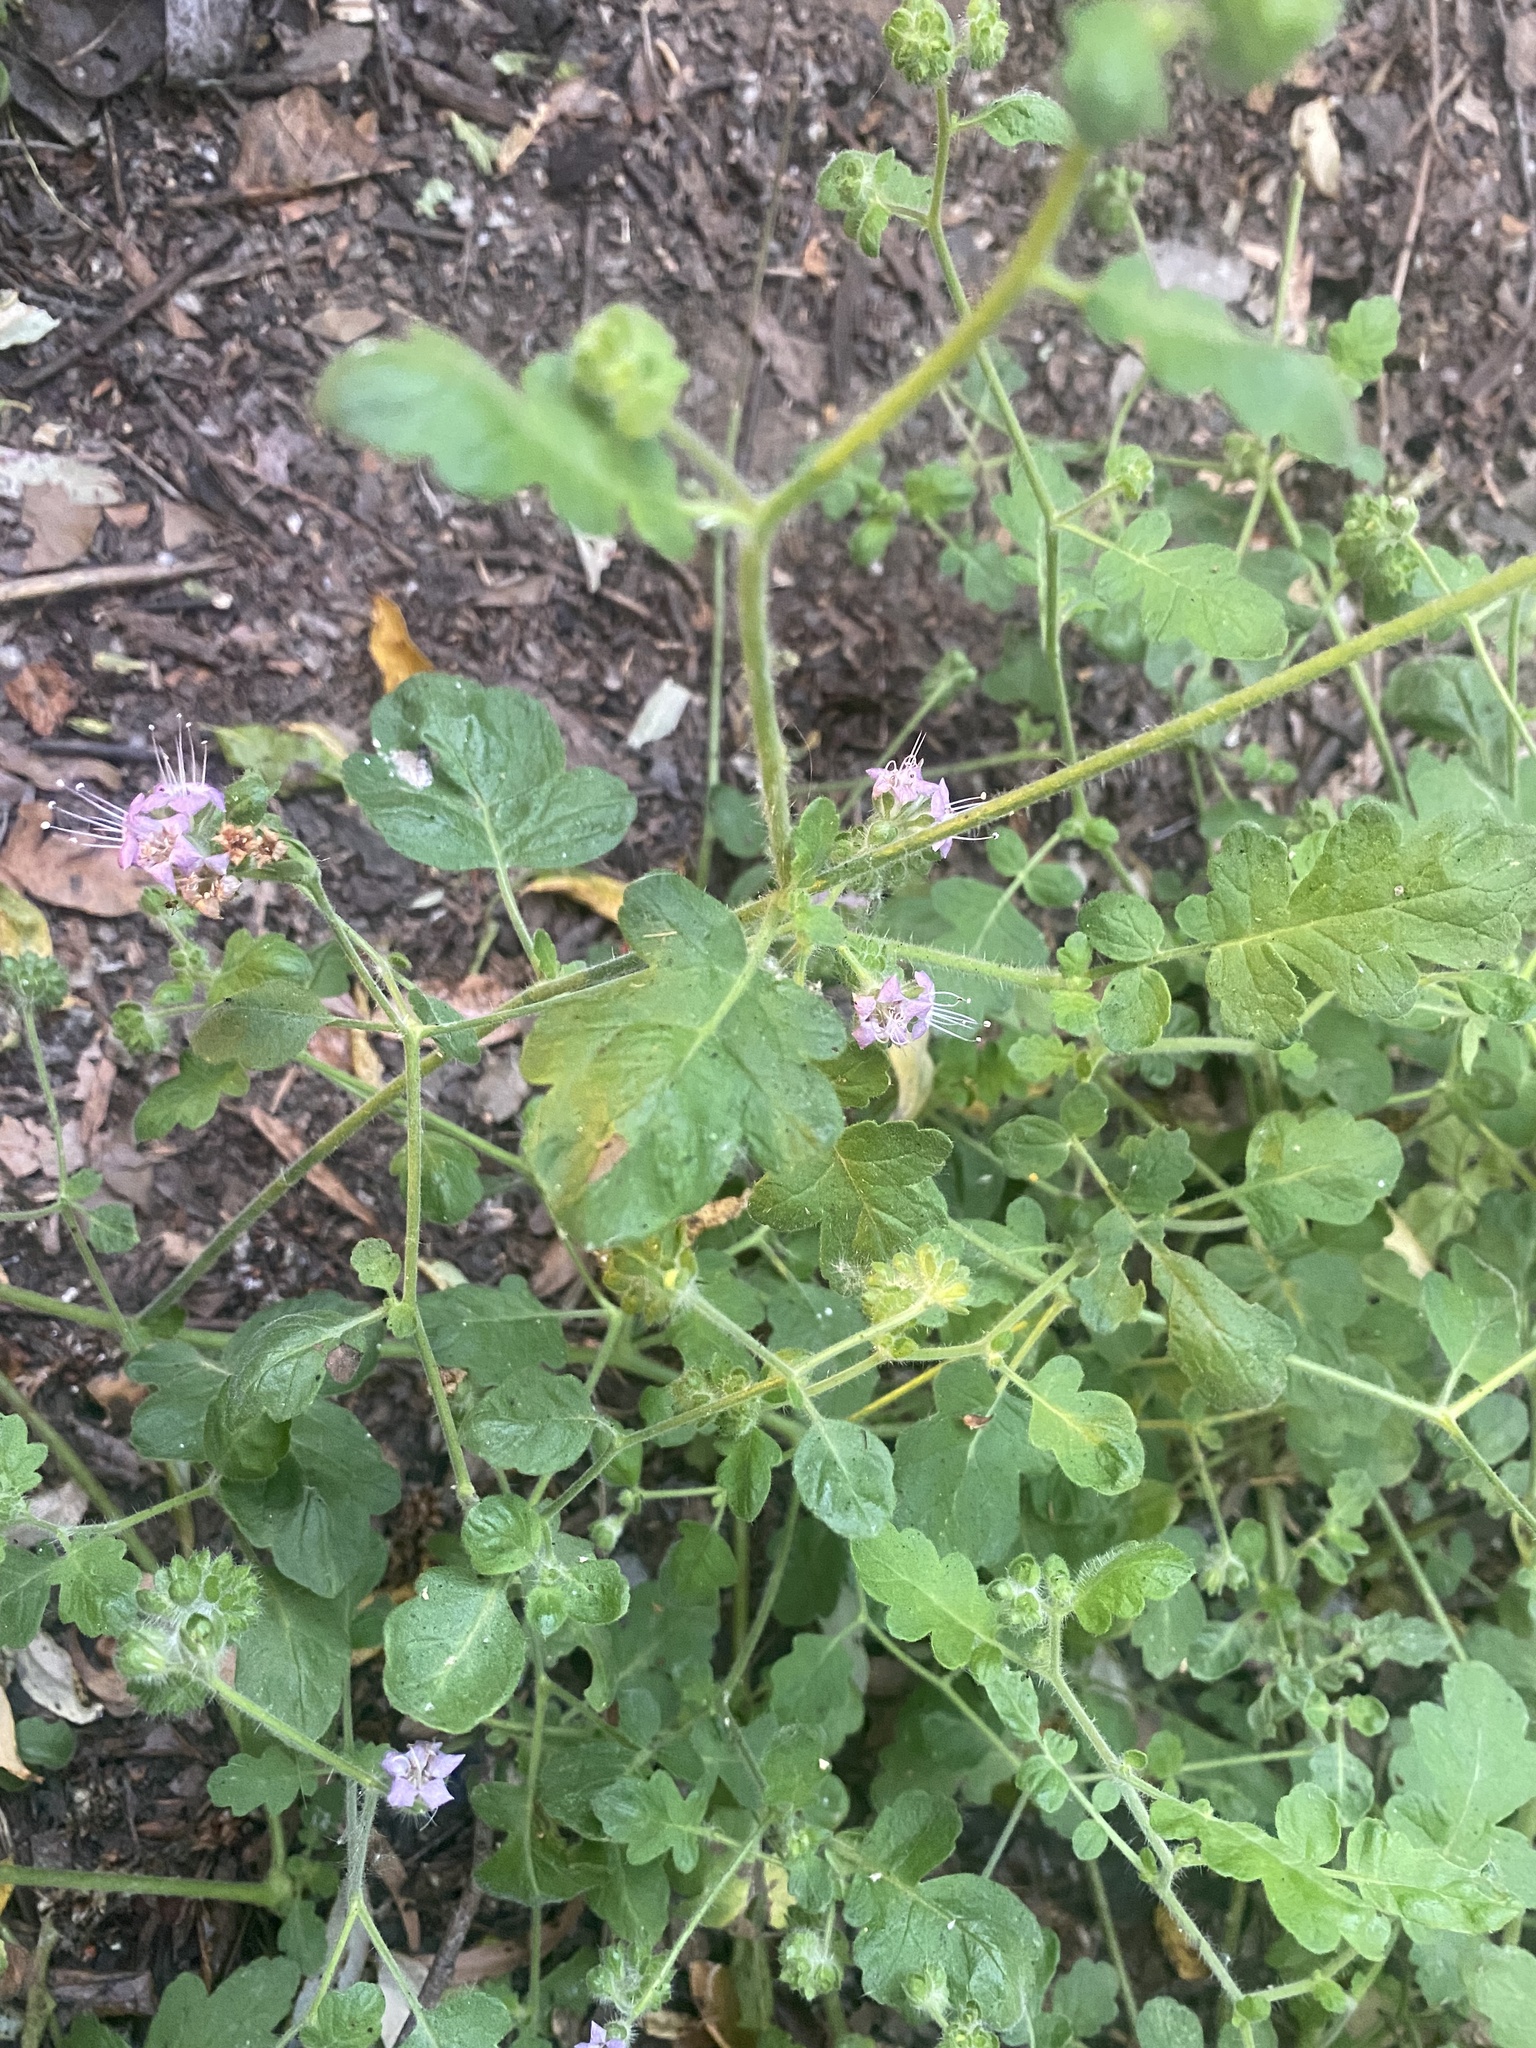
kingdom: Plantae
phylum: Tracheophyta
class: Magnoliopsida
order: Boraginales
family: Hydrophyllaceae
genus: Phacelia
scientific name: Phacelia ramosissima
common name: Branching phacelia
